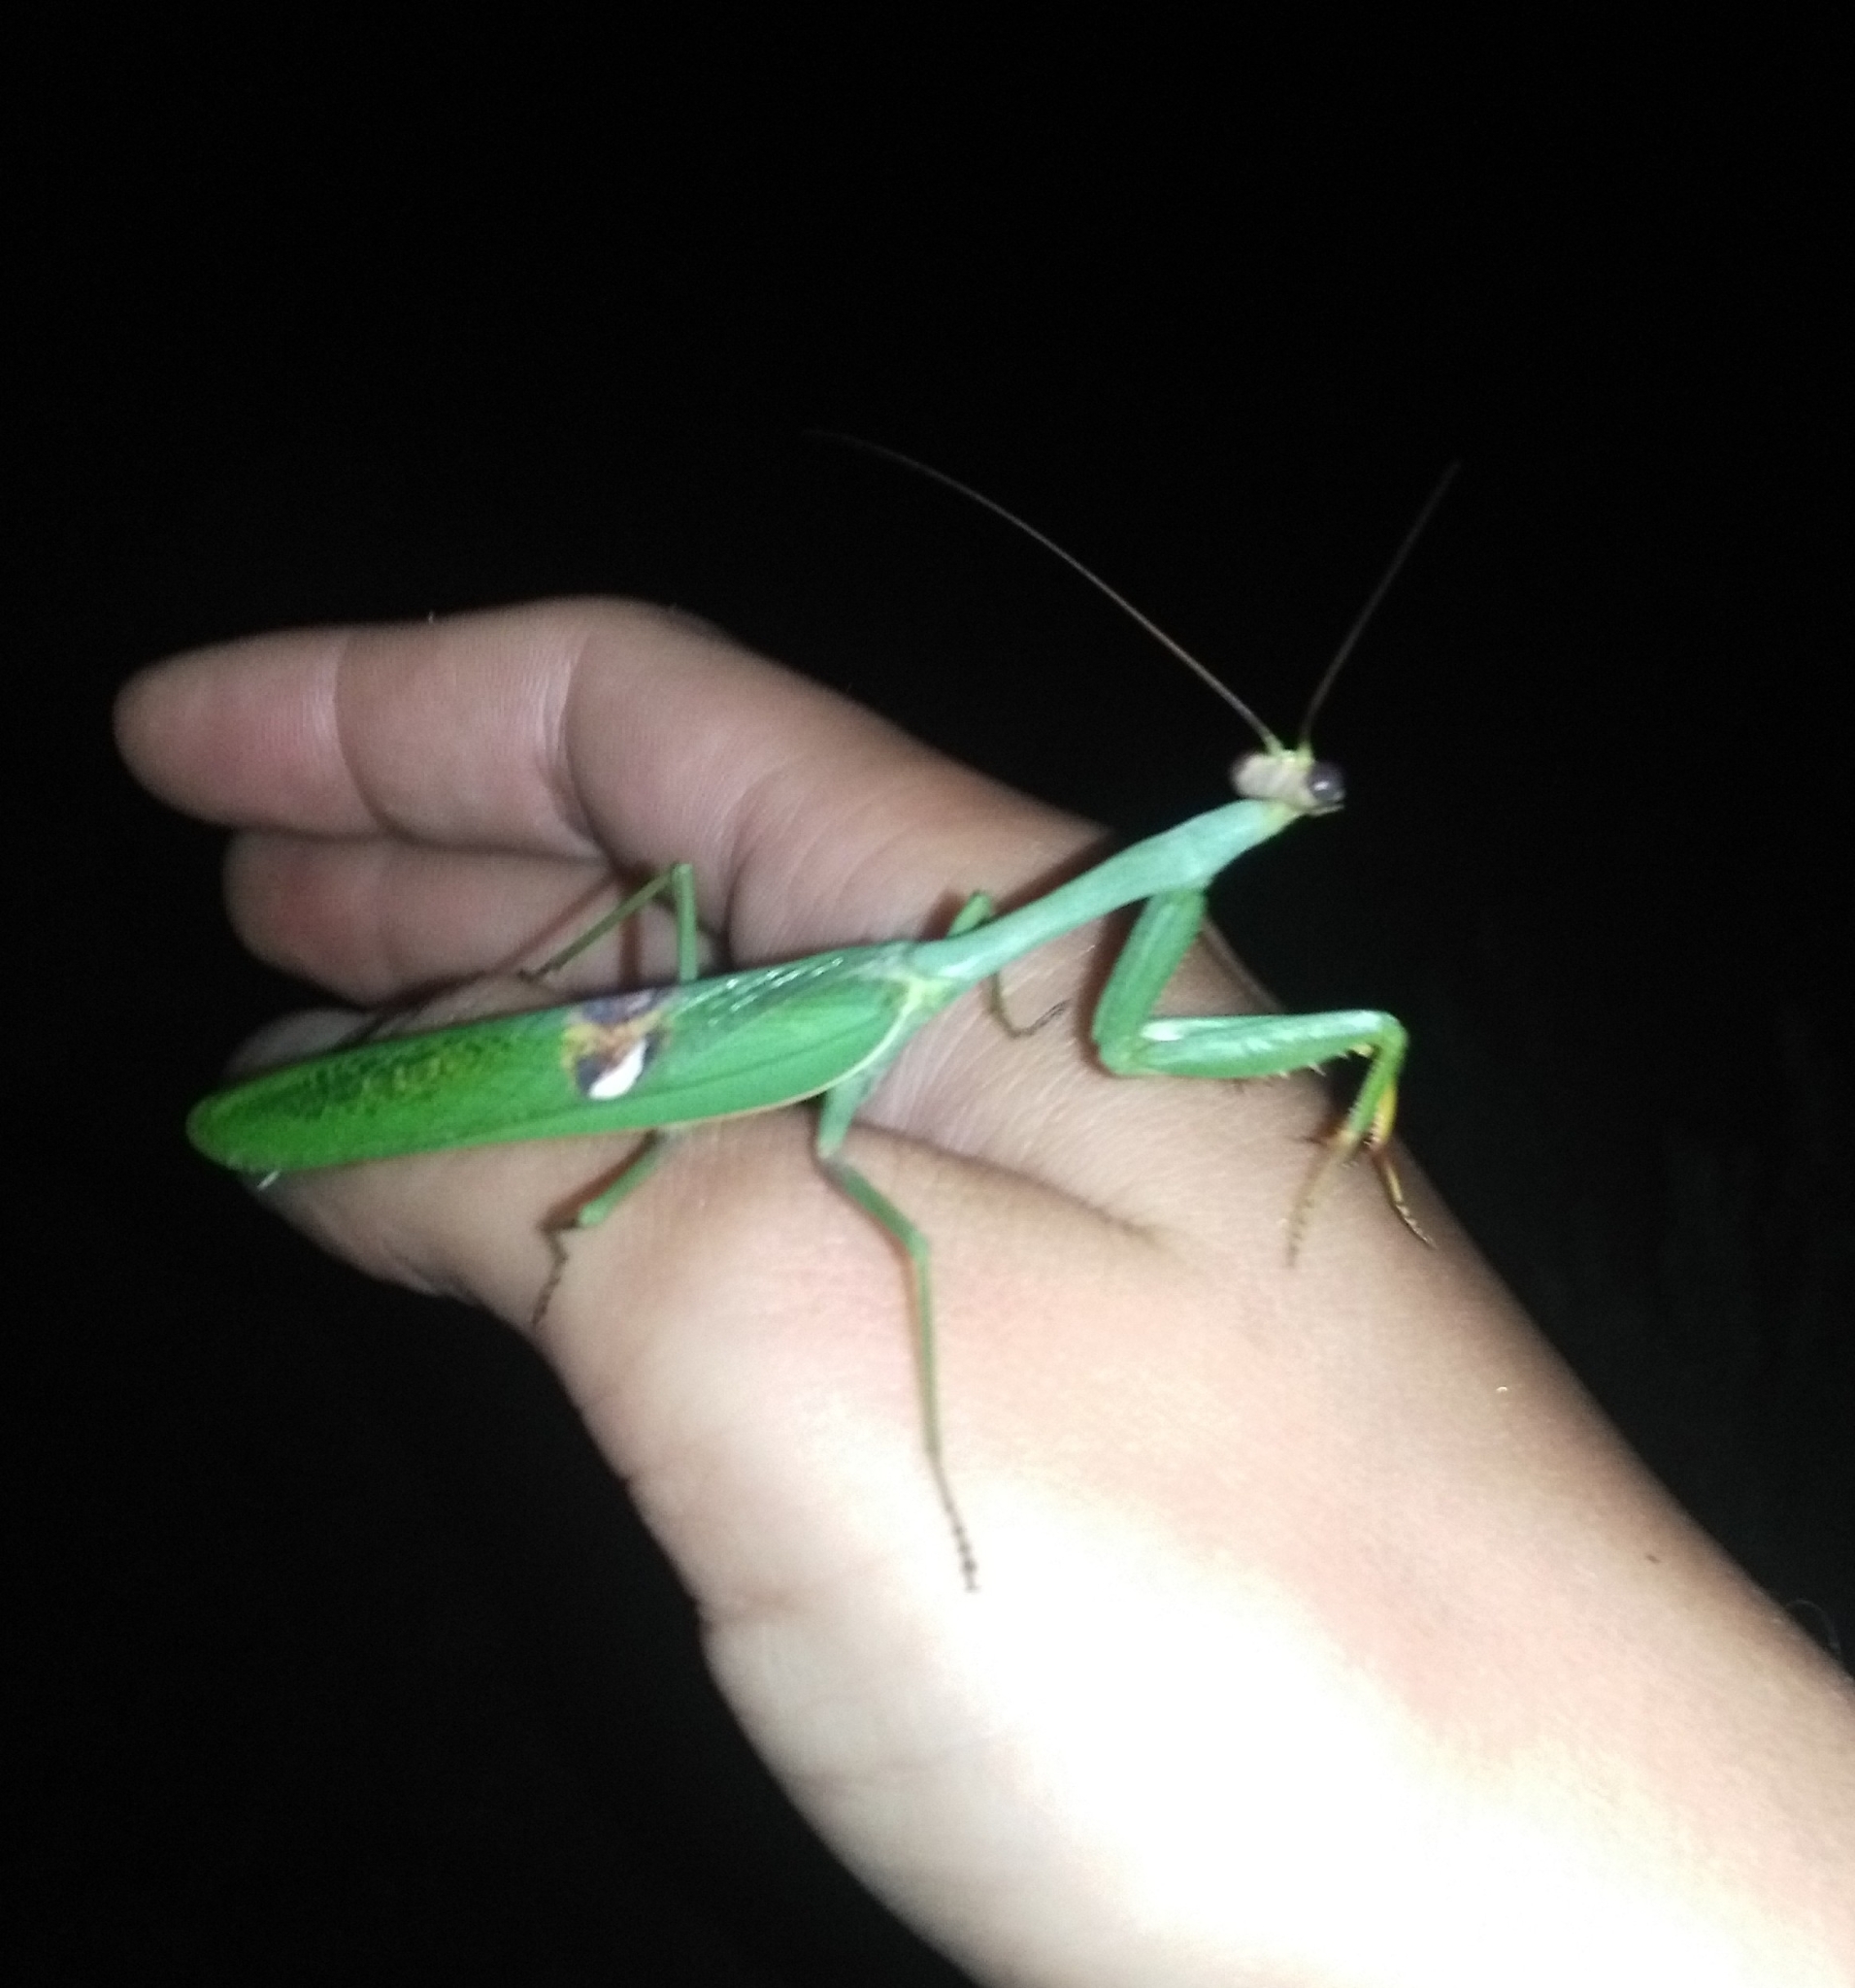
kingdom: Animalia
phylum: Arthropoda
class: Insecta
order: Mantodea
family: Mantidae
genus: Stagmatoptera
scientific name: Stagmatoptera hyaloptera
